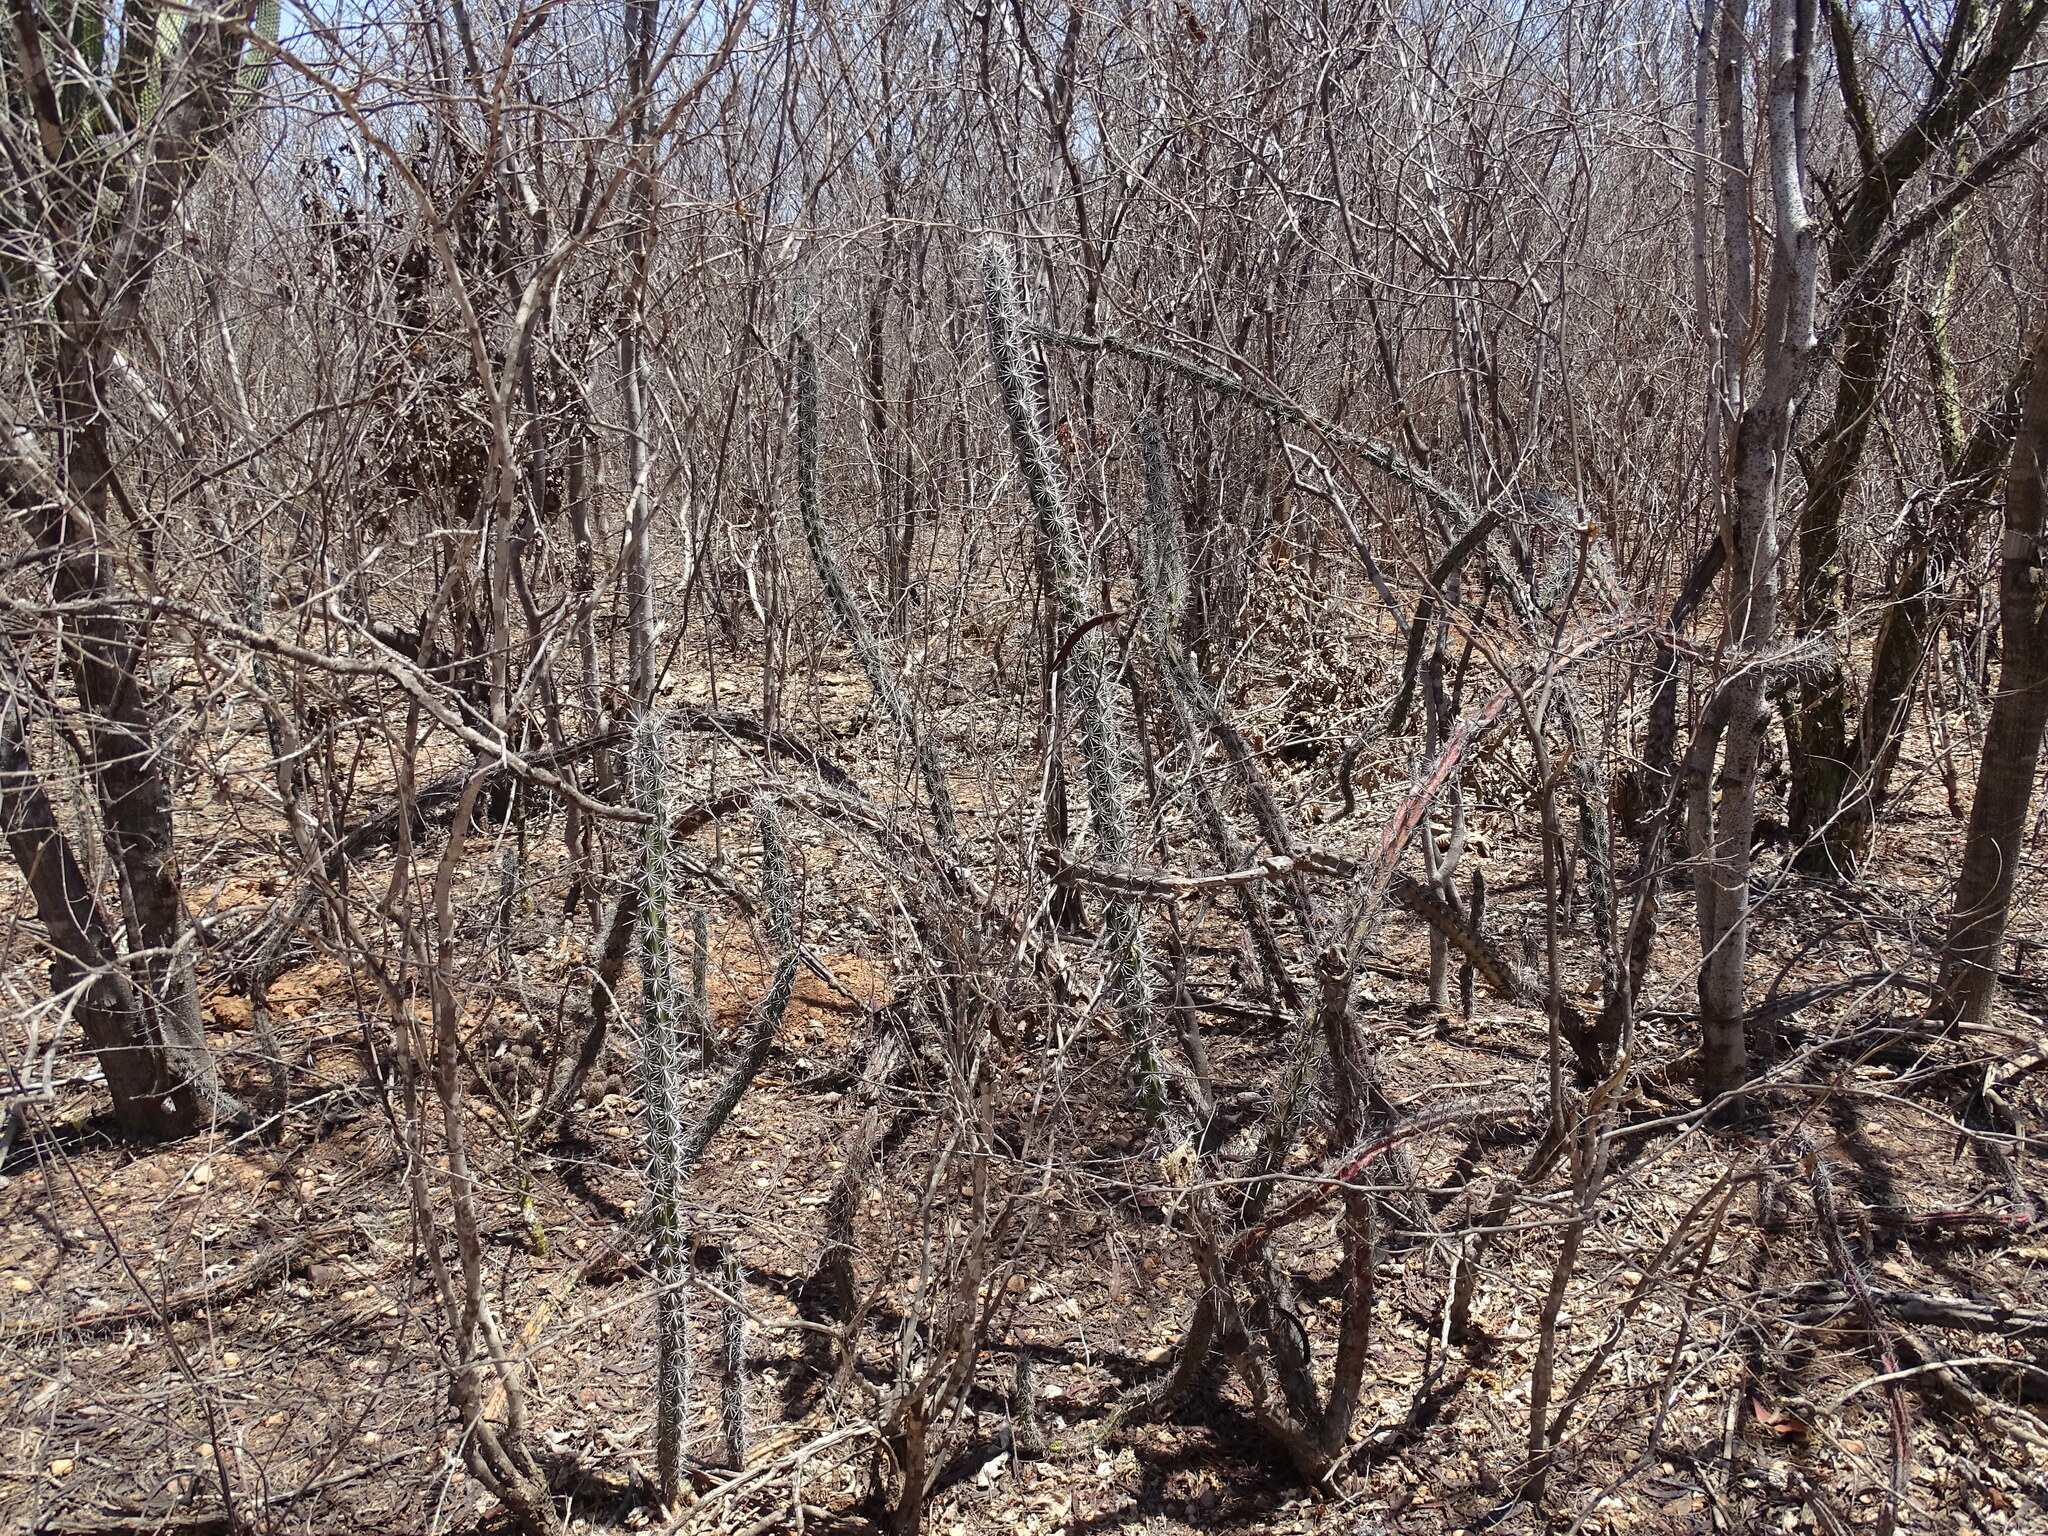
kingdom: Plantae
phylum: Tracheophyta
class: Magnoliopsida
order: Caryophyllales
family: Cactaceae
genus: Stenocereus
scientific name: Stenocereus alamosensis
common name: Octopus cactus
